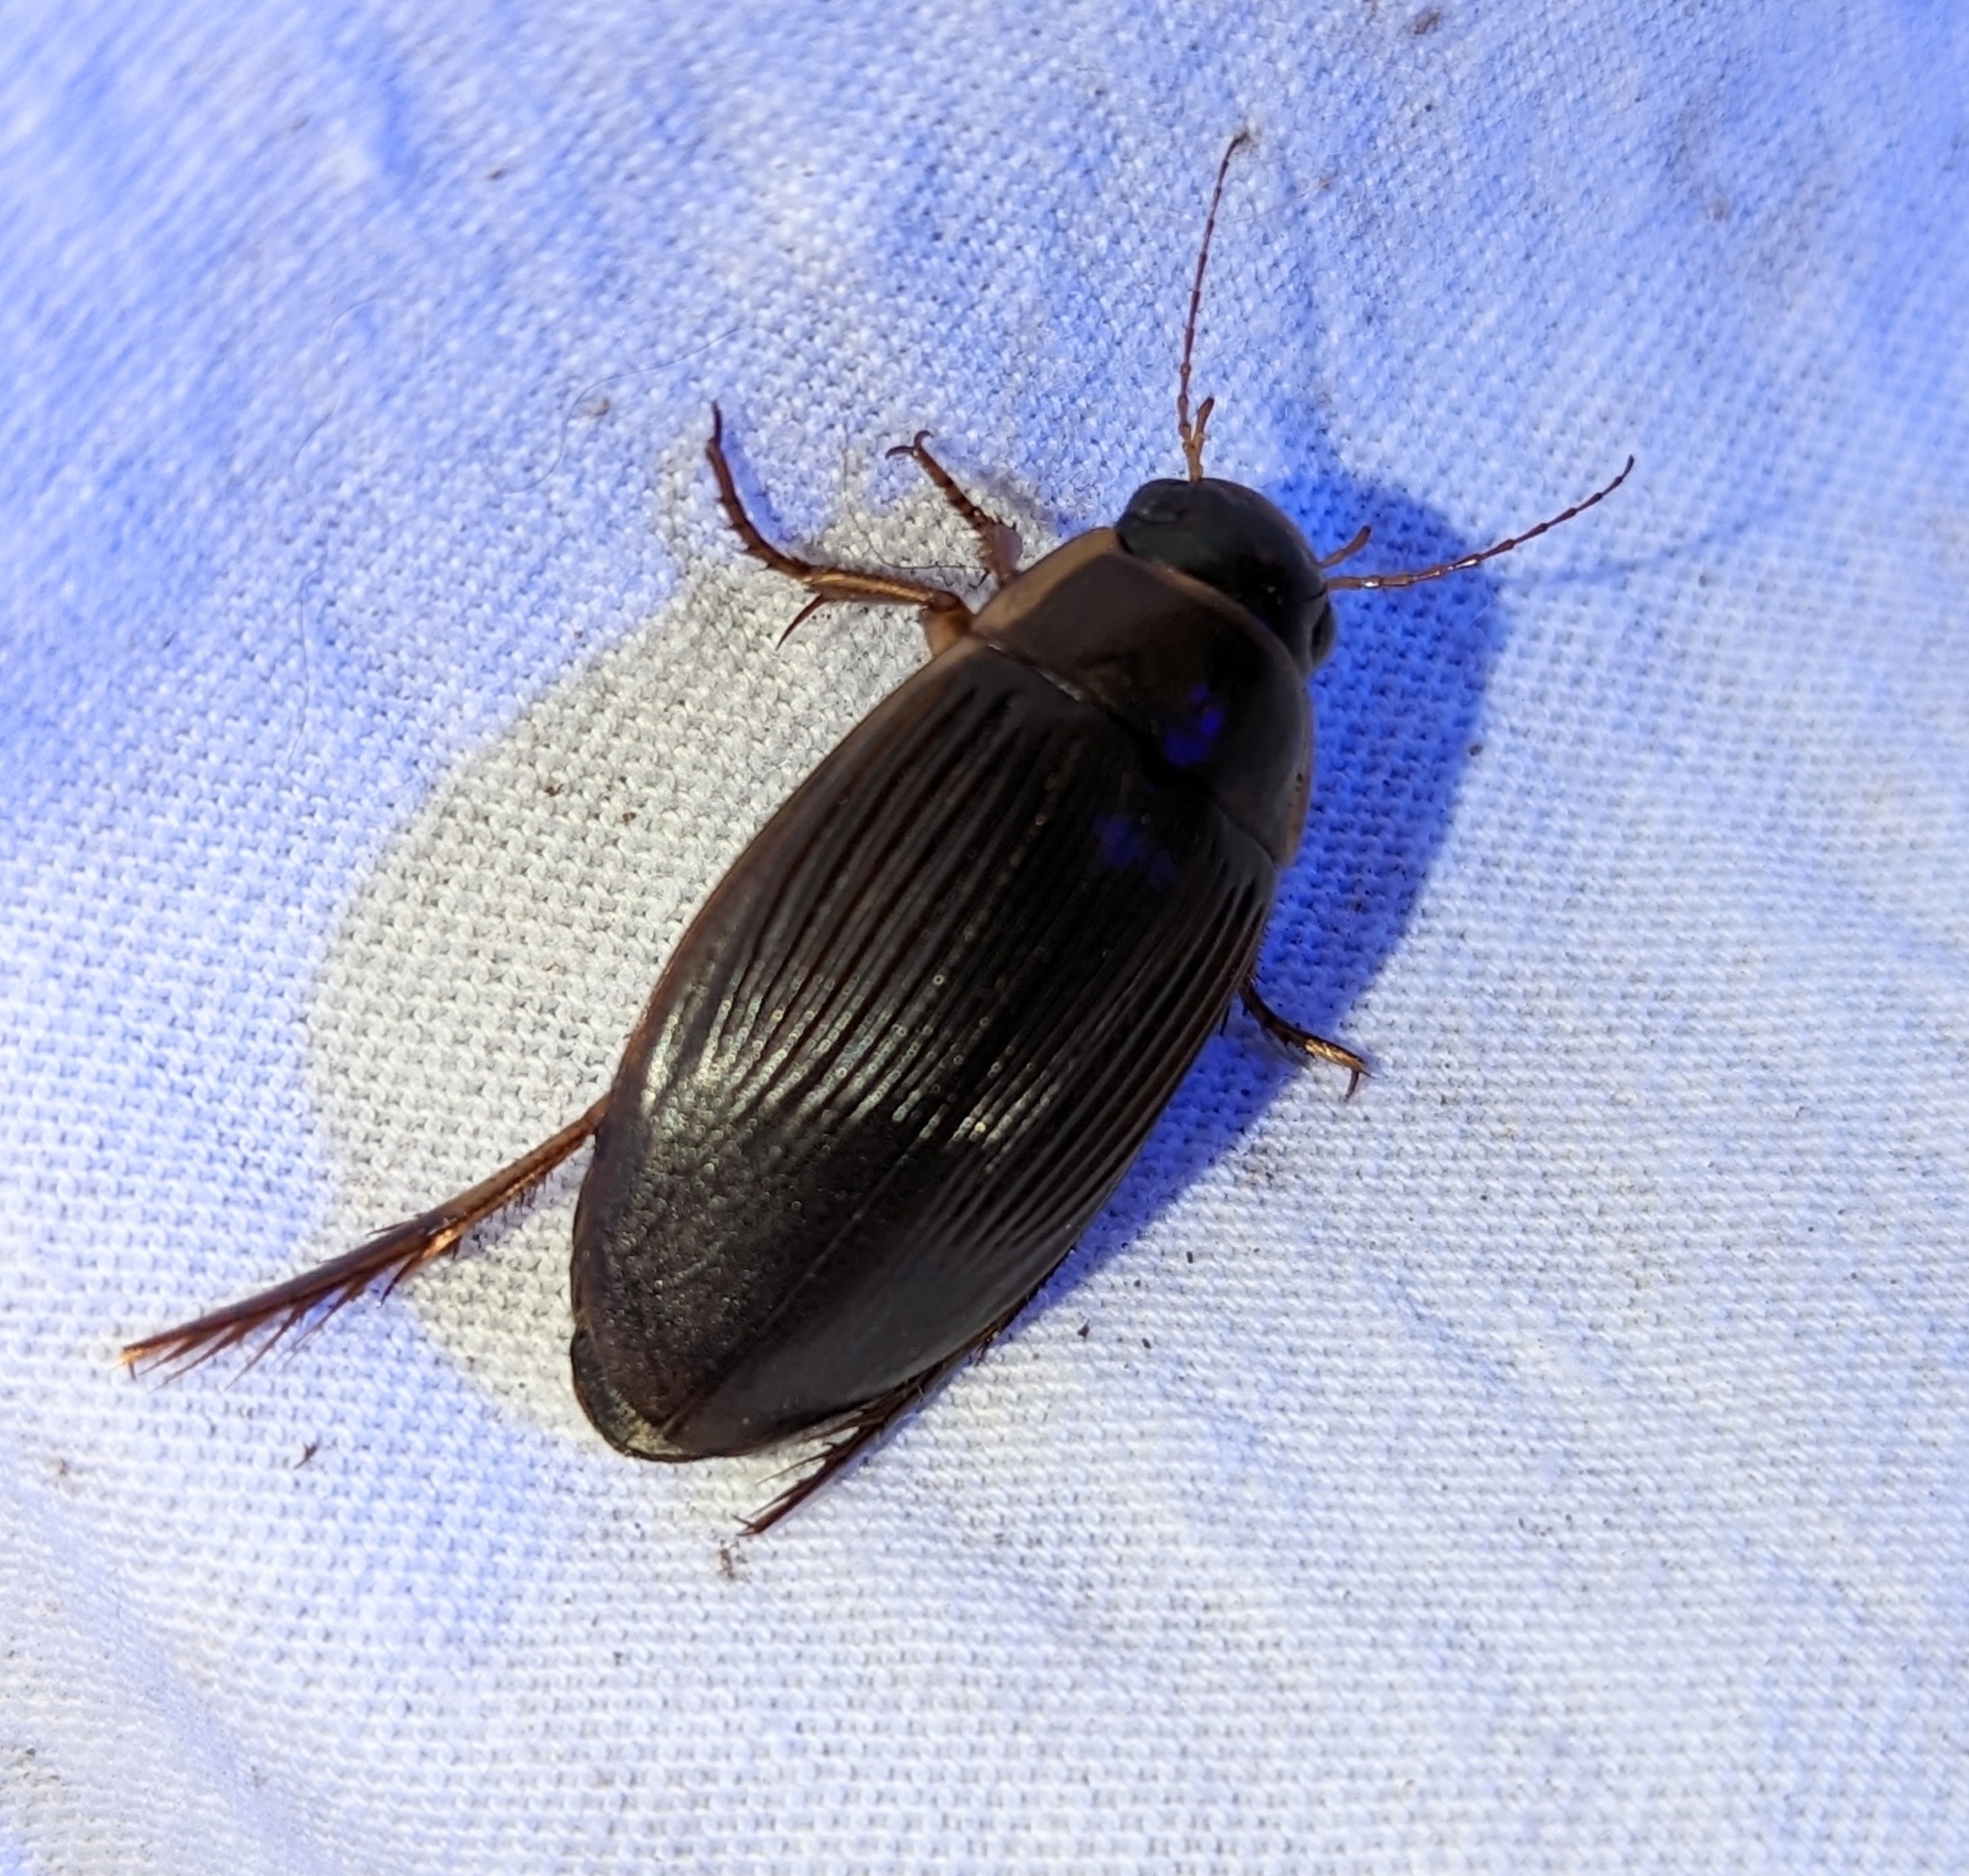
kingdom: Animalia
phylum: Arthropoda
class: Insecta
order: Coleoptera
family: Dytiscidae
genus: Dytiscus
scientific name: Dytiscus
